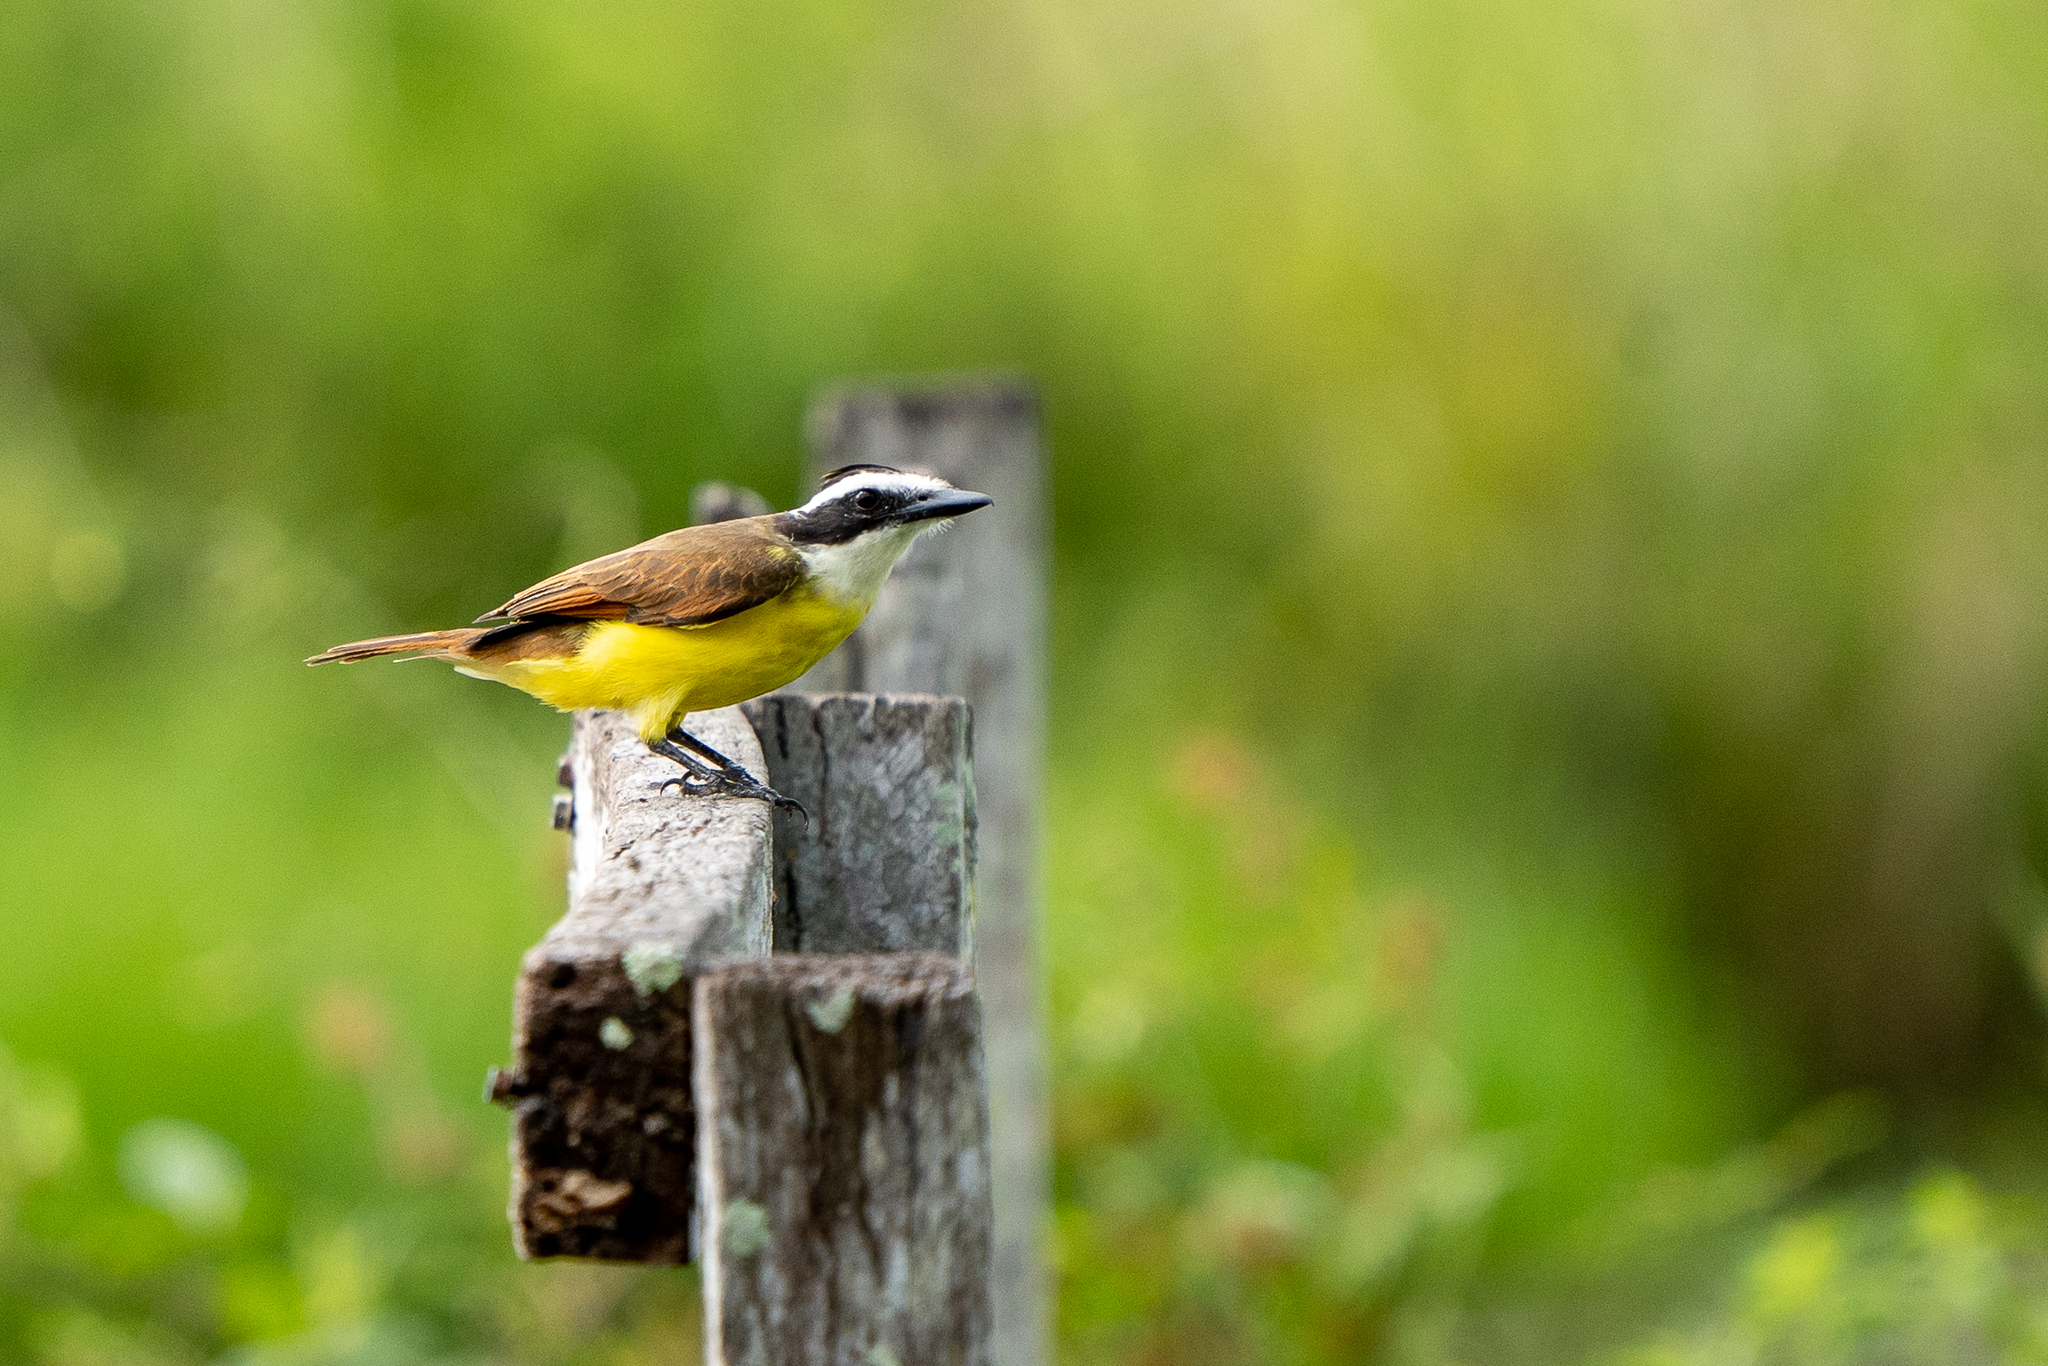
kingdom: Animalia
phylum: Chordata
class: Aves
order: Passeriformes
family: Tyrannidae
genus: Pitangus
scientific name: Pitangus sulphuratus
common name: Great kiskadee
